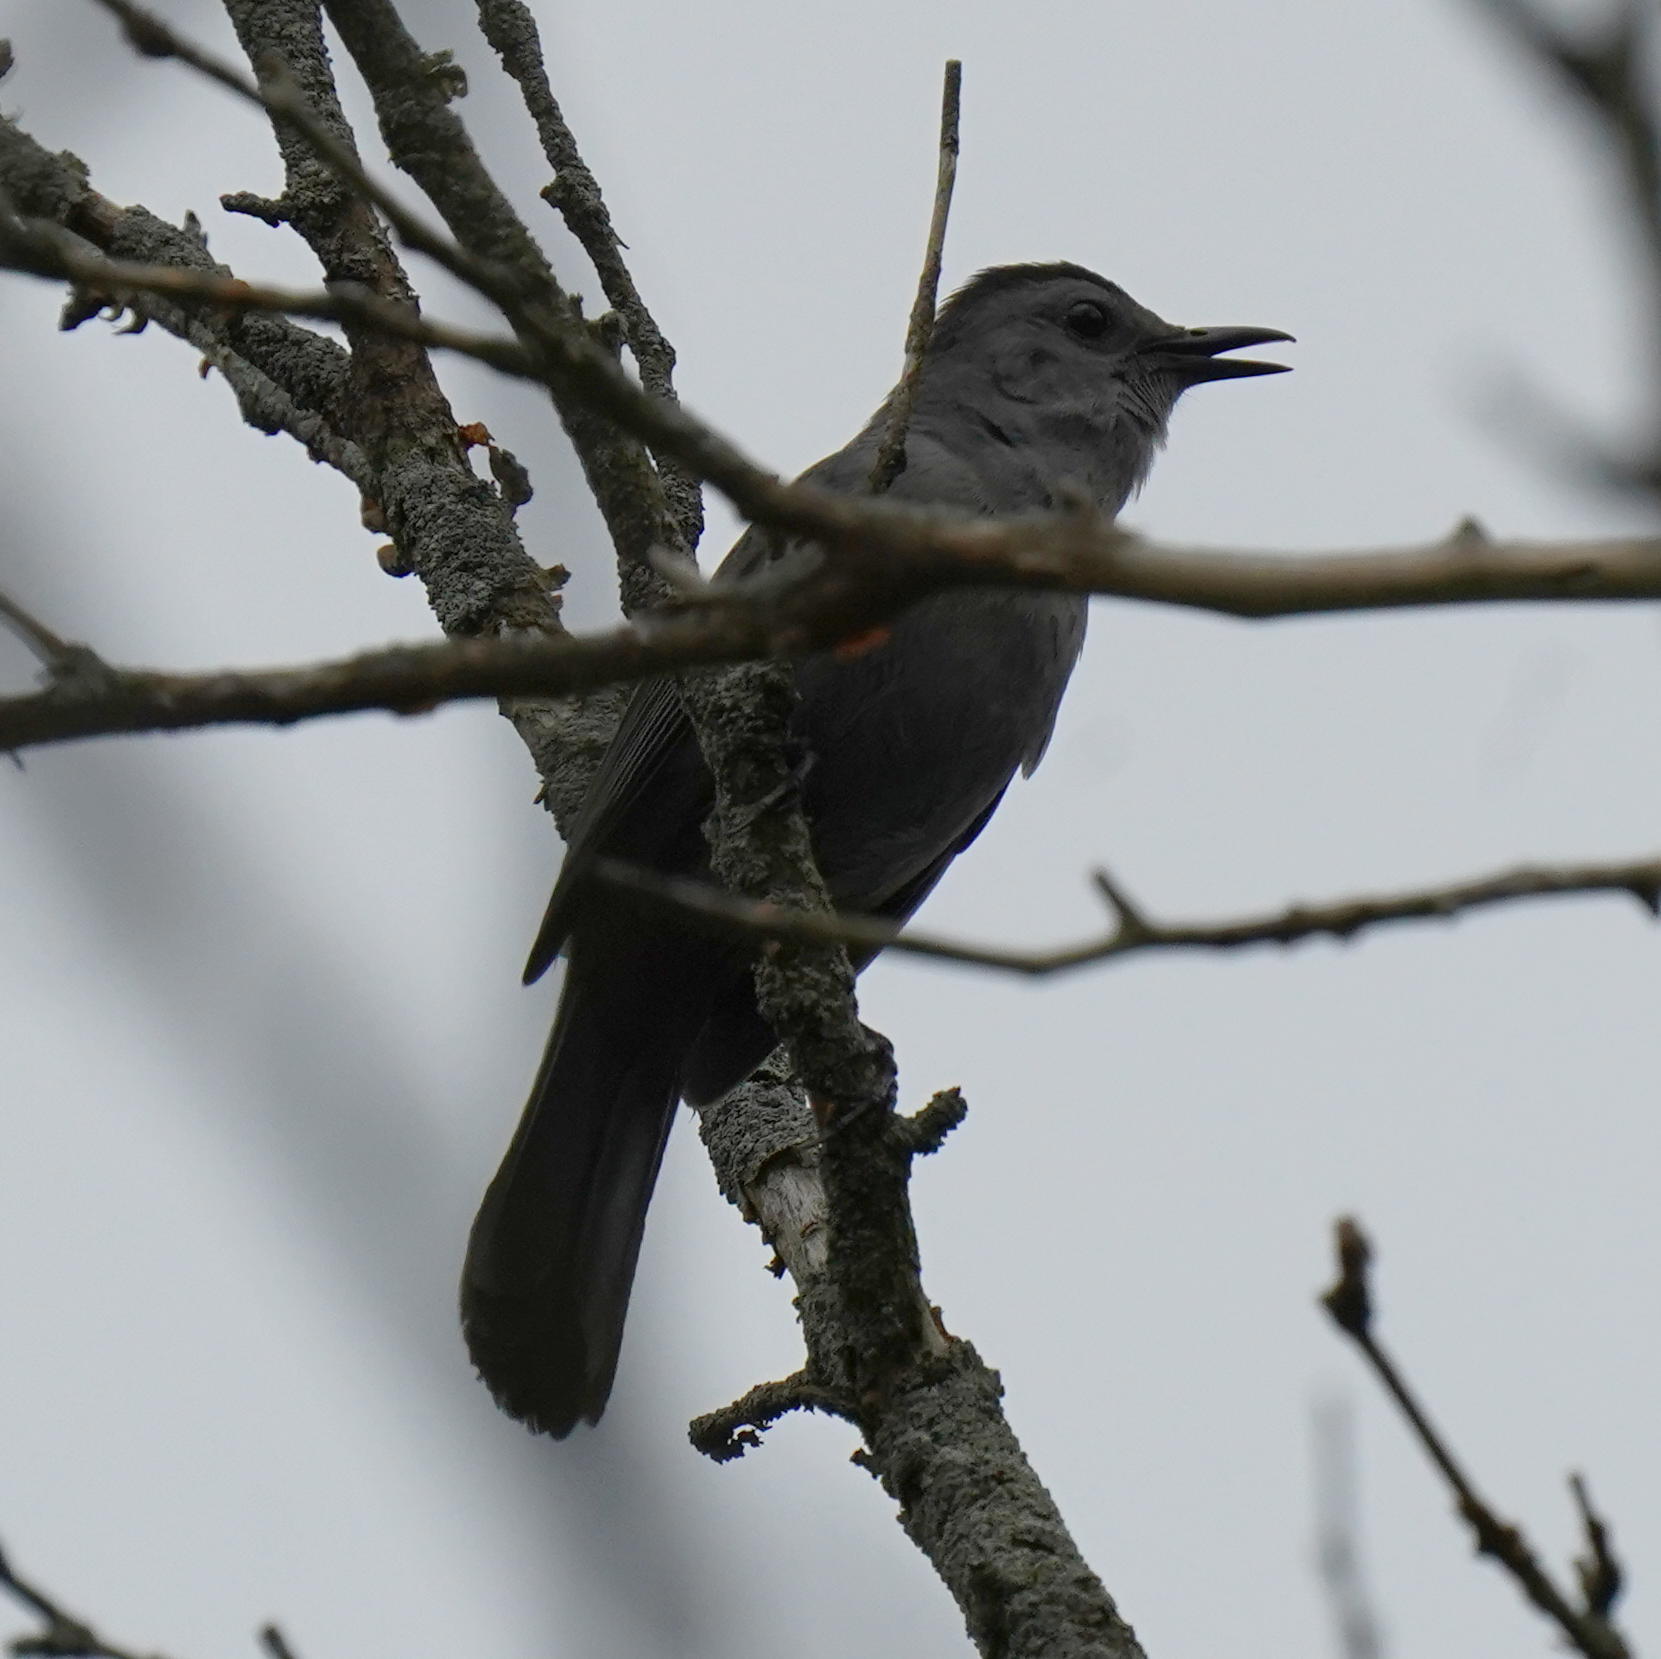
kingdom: Animalia
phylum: Chordata
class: Aves
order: Passeriformes
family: Mimidae
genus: Dumetella
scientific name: Dumetella carolinensis
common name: Gray catbird
